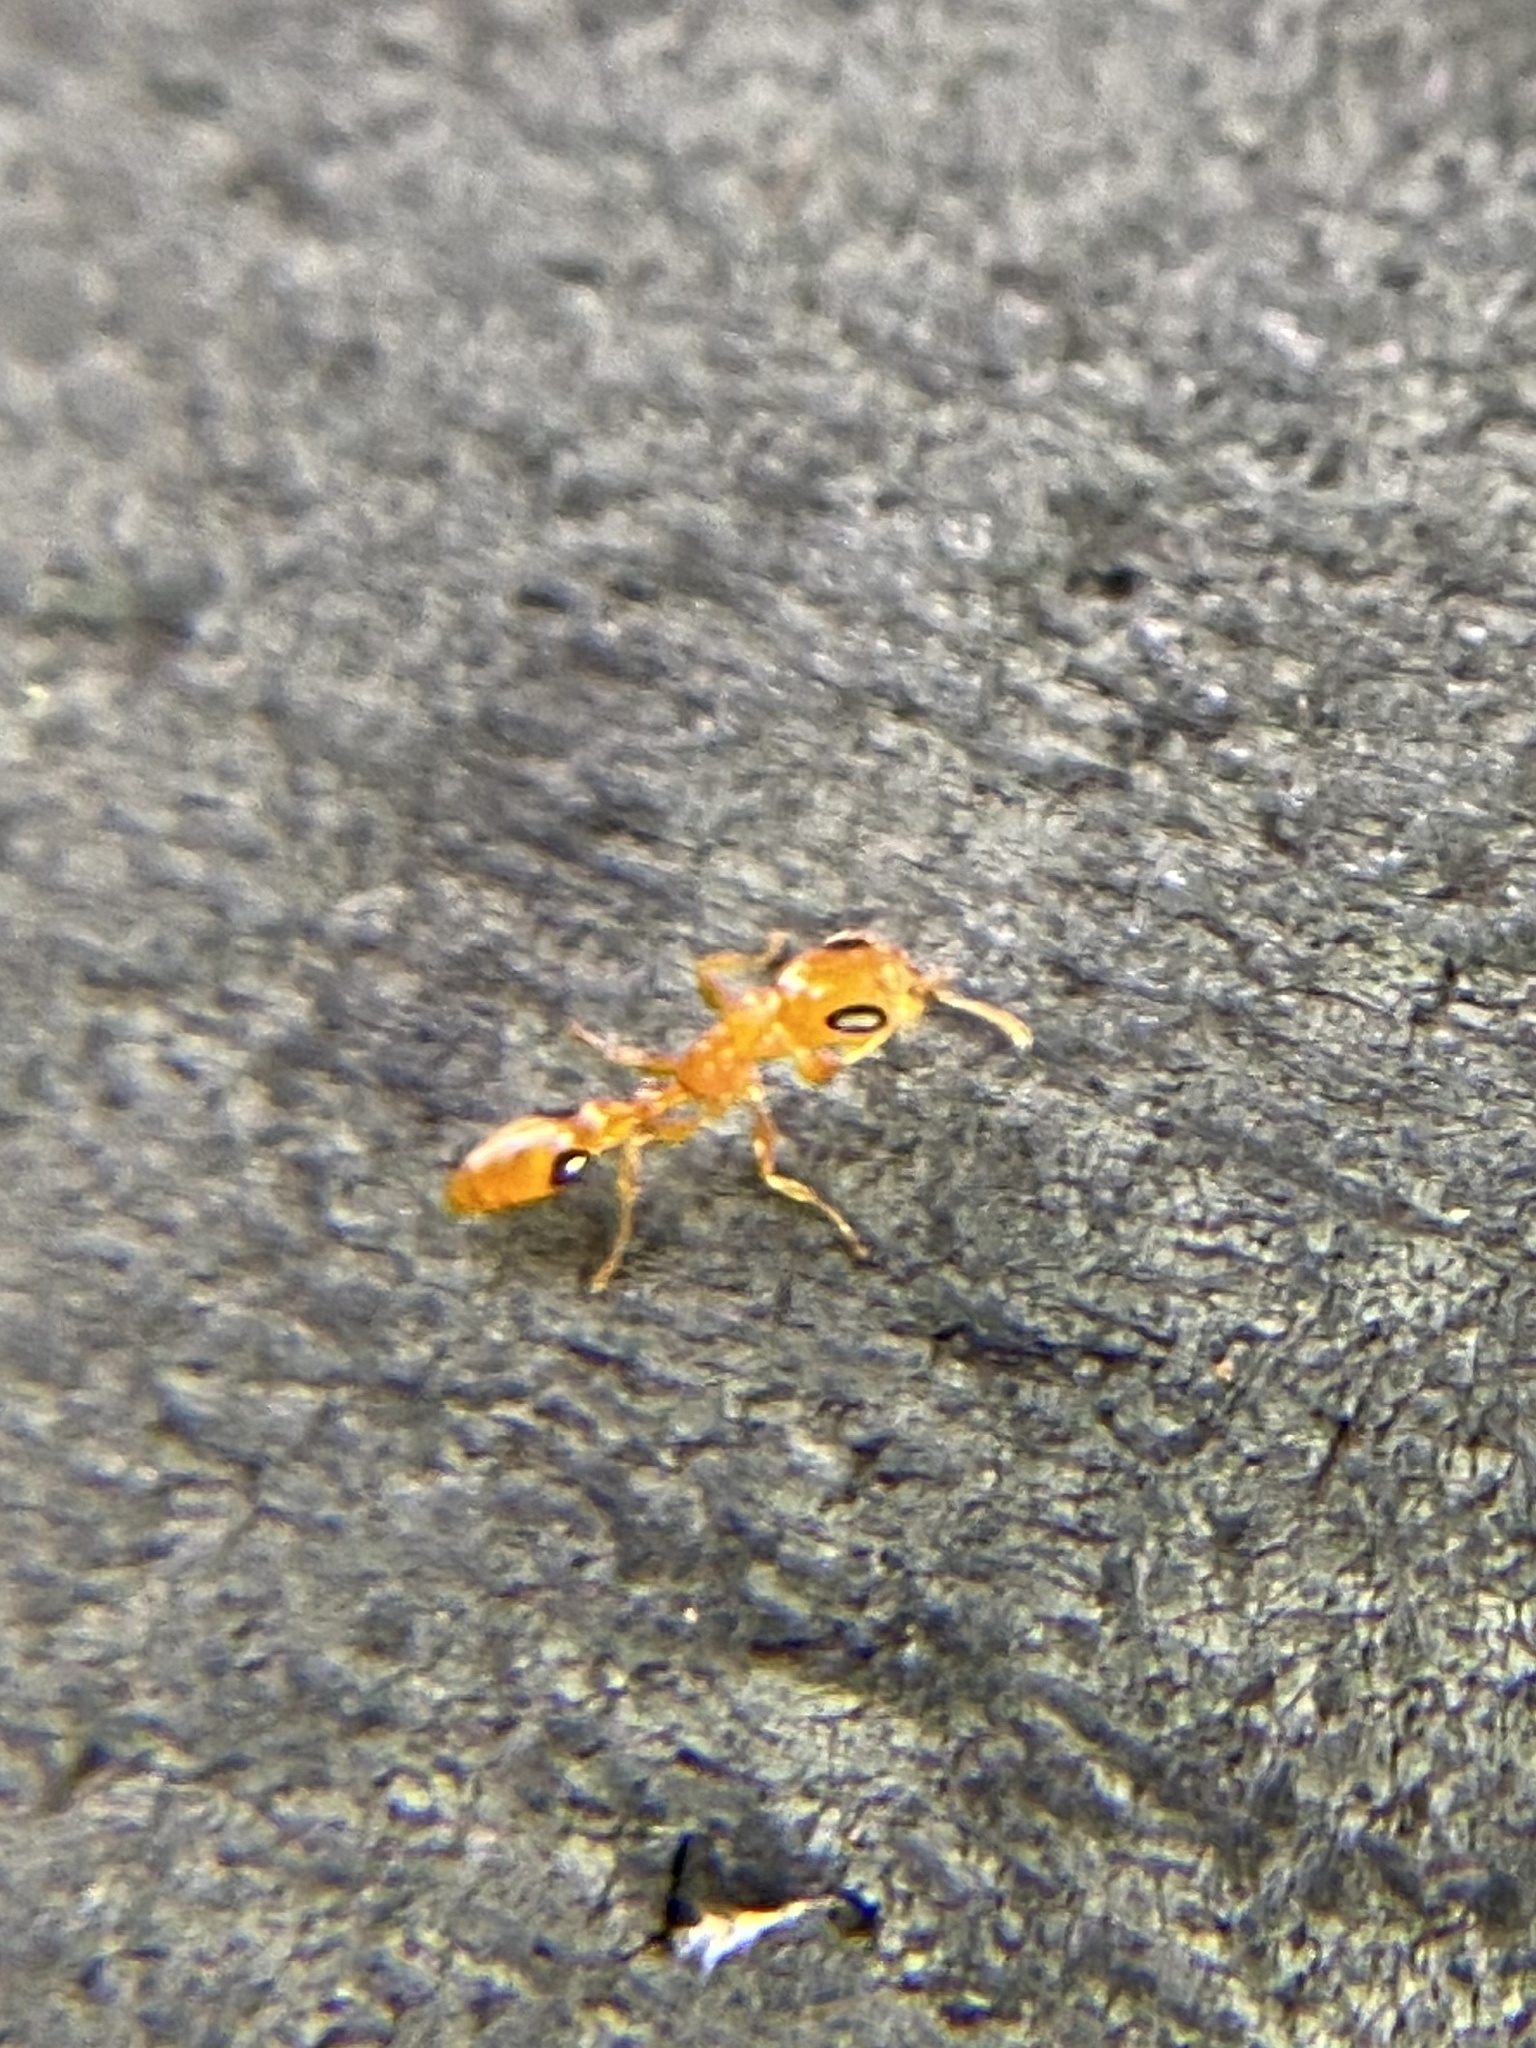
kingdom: Animalia
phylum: Arthropoda
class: Insecta
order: Hymenoptera
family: Formicidae
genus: Pseudomyrmex
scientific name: Pseudomyrmex simplex
